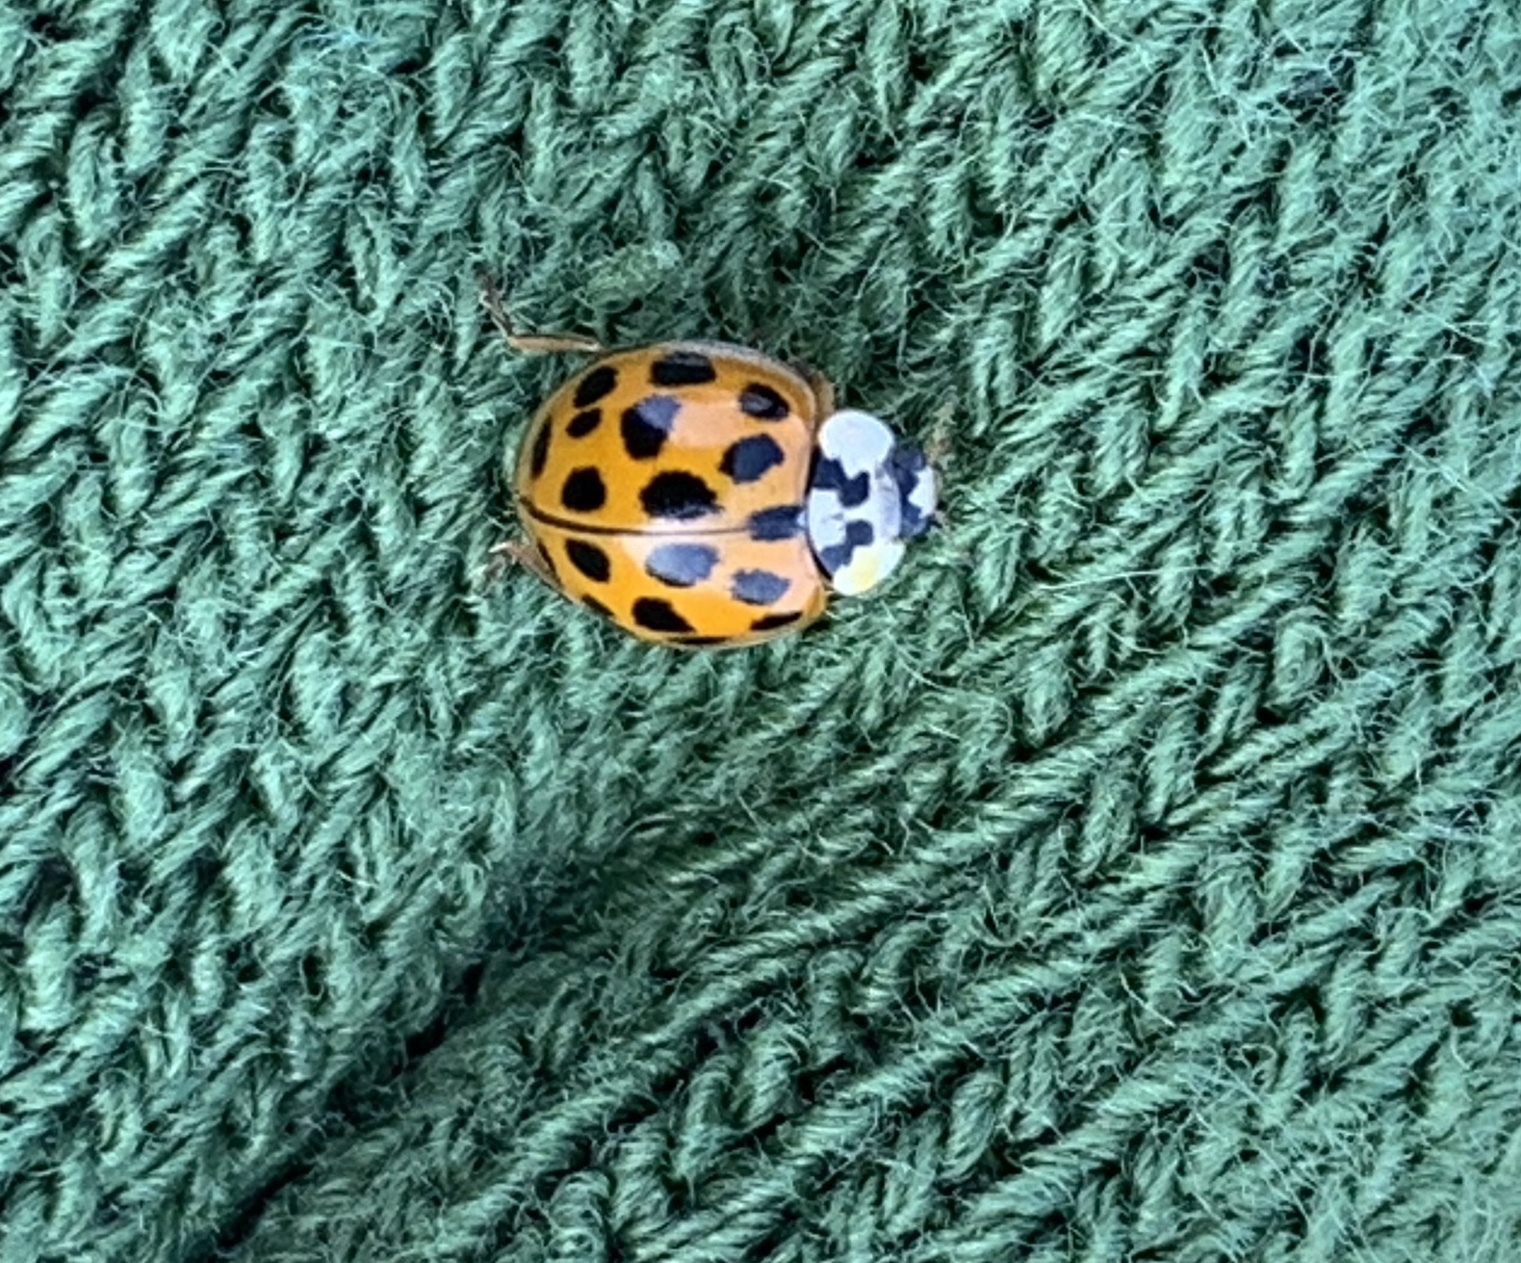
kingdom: Animalia
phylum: Arthropoda
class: Insecta
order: Coleoptera
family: Coccinellidae
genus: Harmonia
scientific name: Harmonia axyridis
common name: Harlequin ladybird
